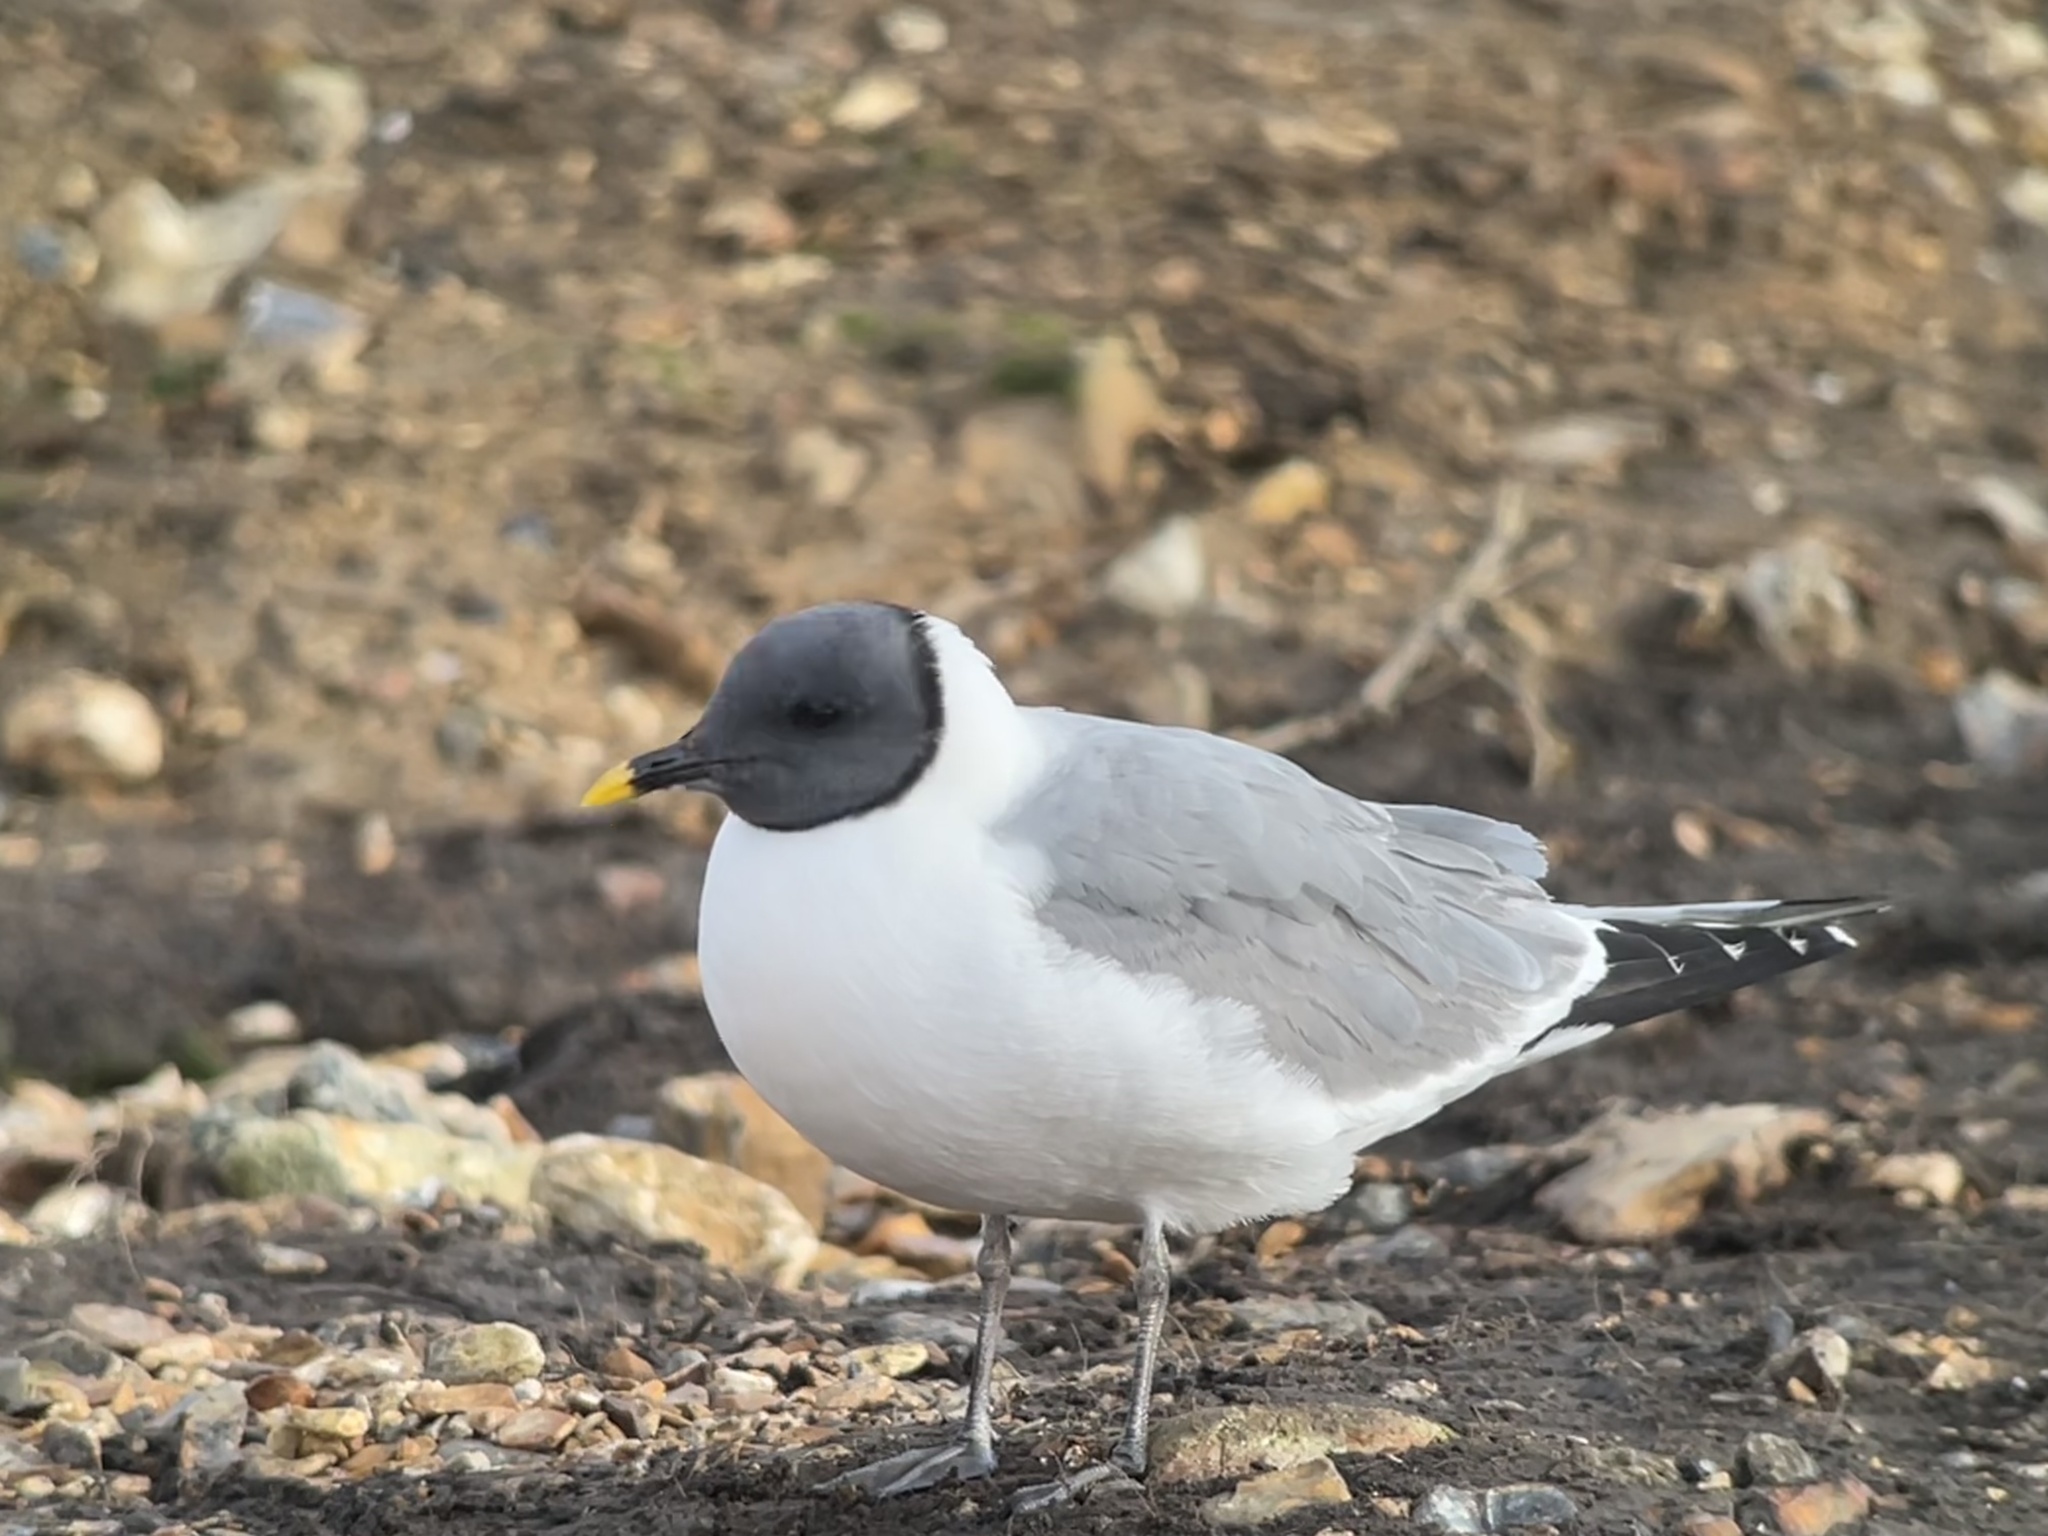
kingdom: Animalia
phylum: Chordata
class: Aves
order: Charadriiformes
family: Laridae
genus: Xema
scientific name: Xema sabini
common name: Sabine's gull
